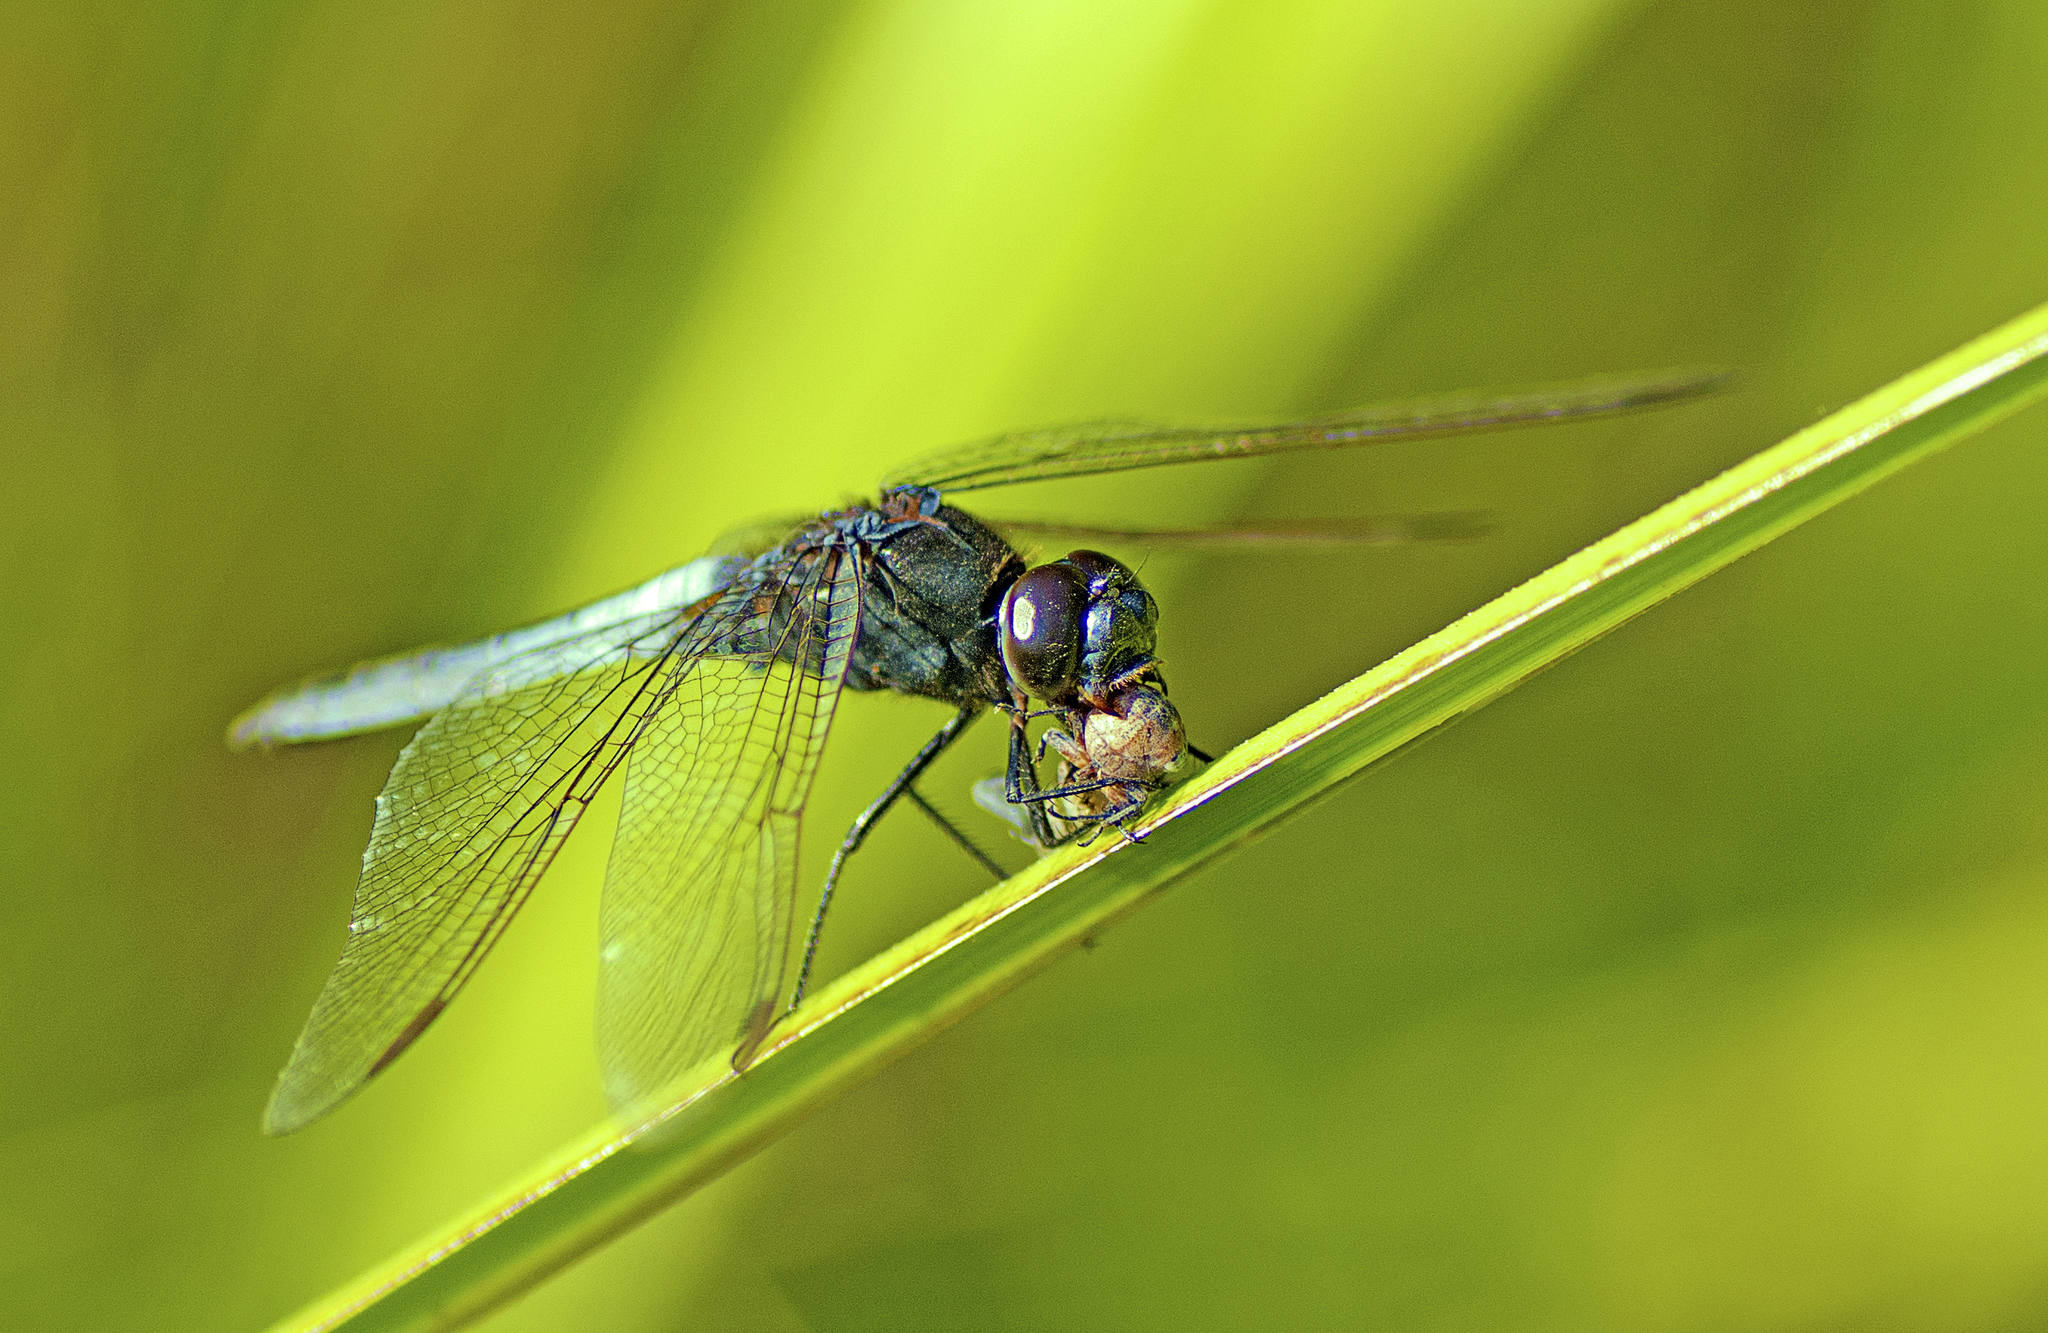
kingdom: Animalia
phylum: Arthropoda
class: Insecta
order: Odonata
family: Libellulidae
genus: Crocothemis
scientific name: Crocothemis nigrifrons
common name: Black-headed skimmer
